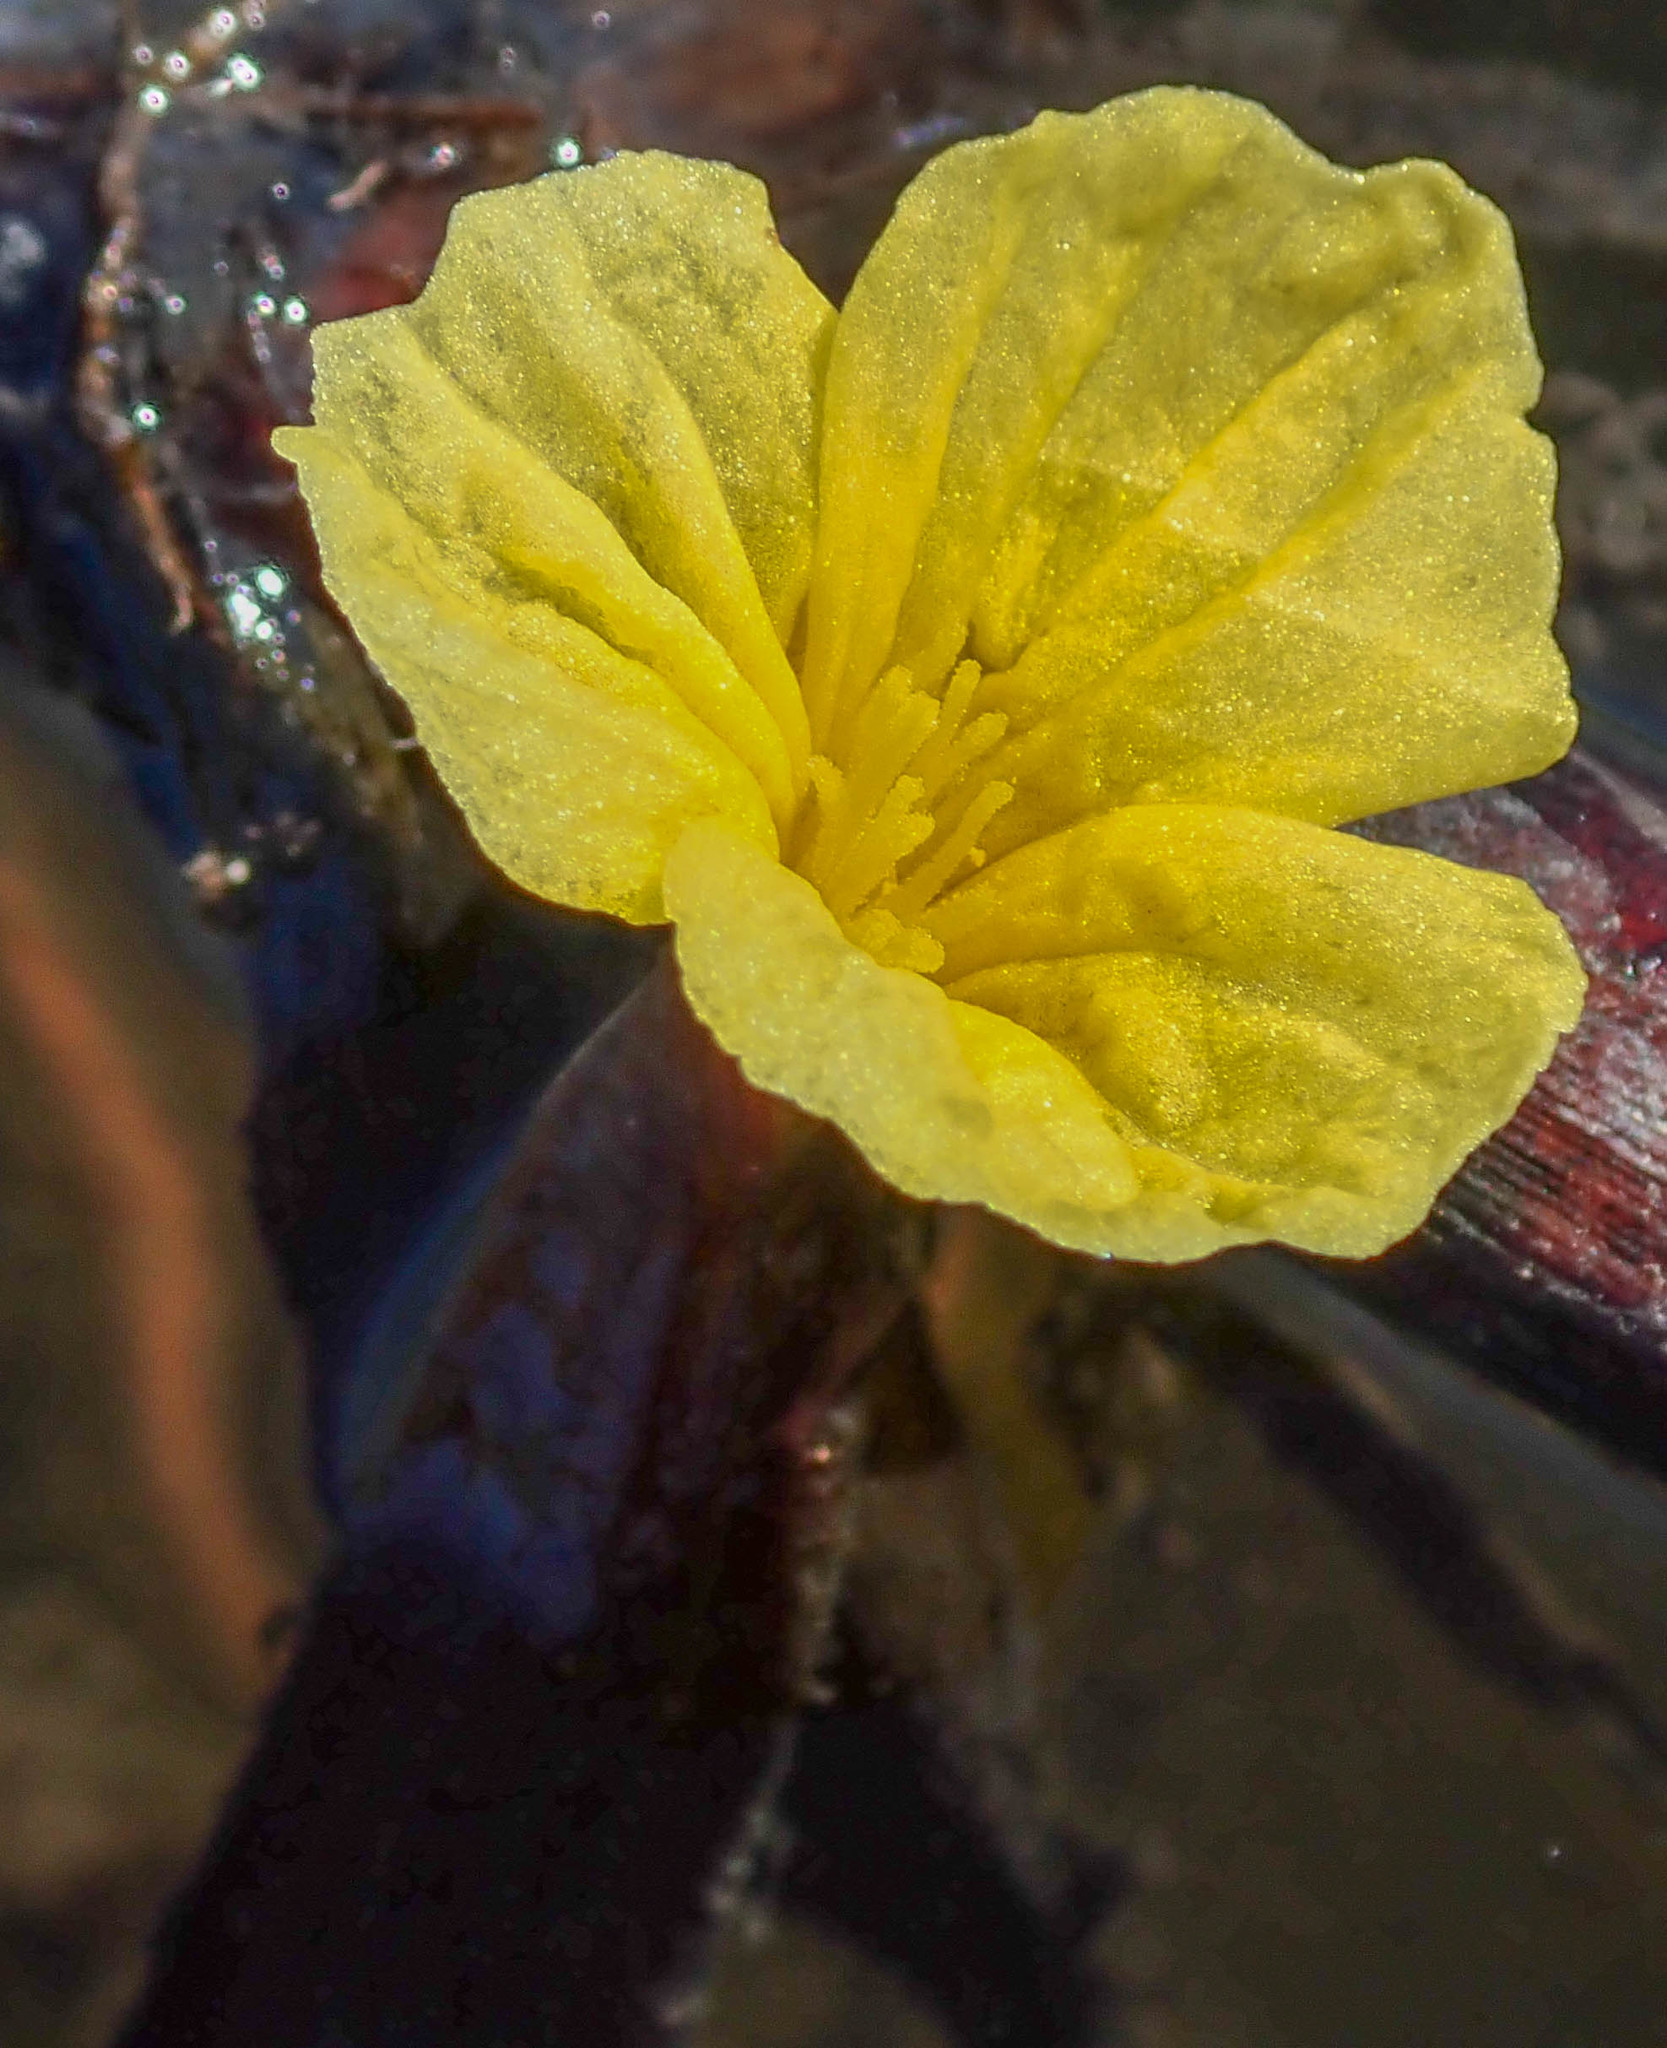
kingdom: Plantae
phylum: Tracheophyta
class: Liliopsida
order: Alismatales
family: Hydrocharitaceae
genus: Ottelia
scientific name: Ottelia ulvifolia
